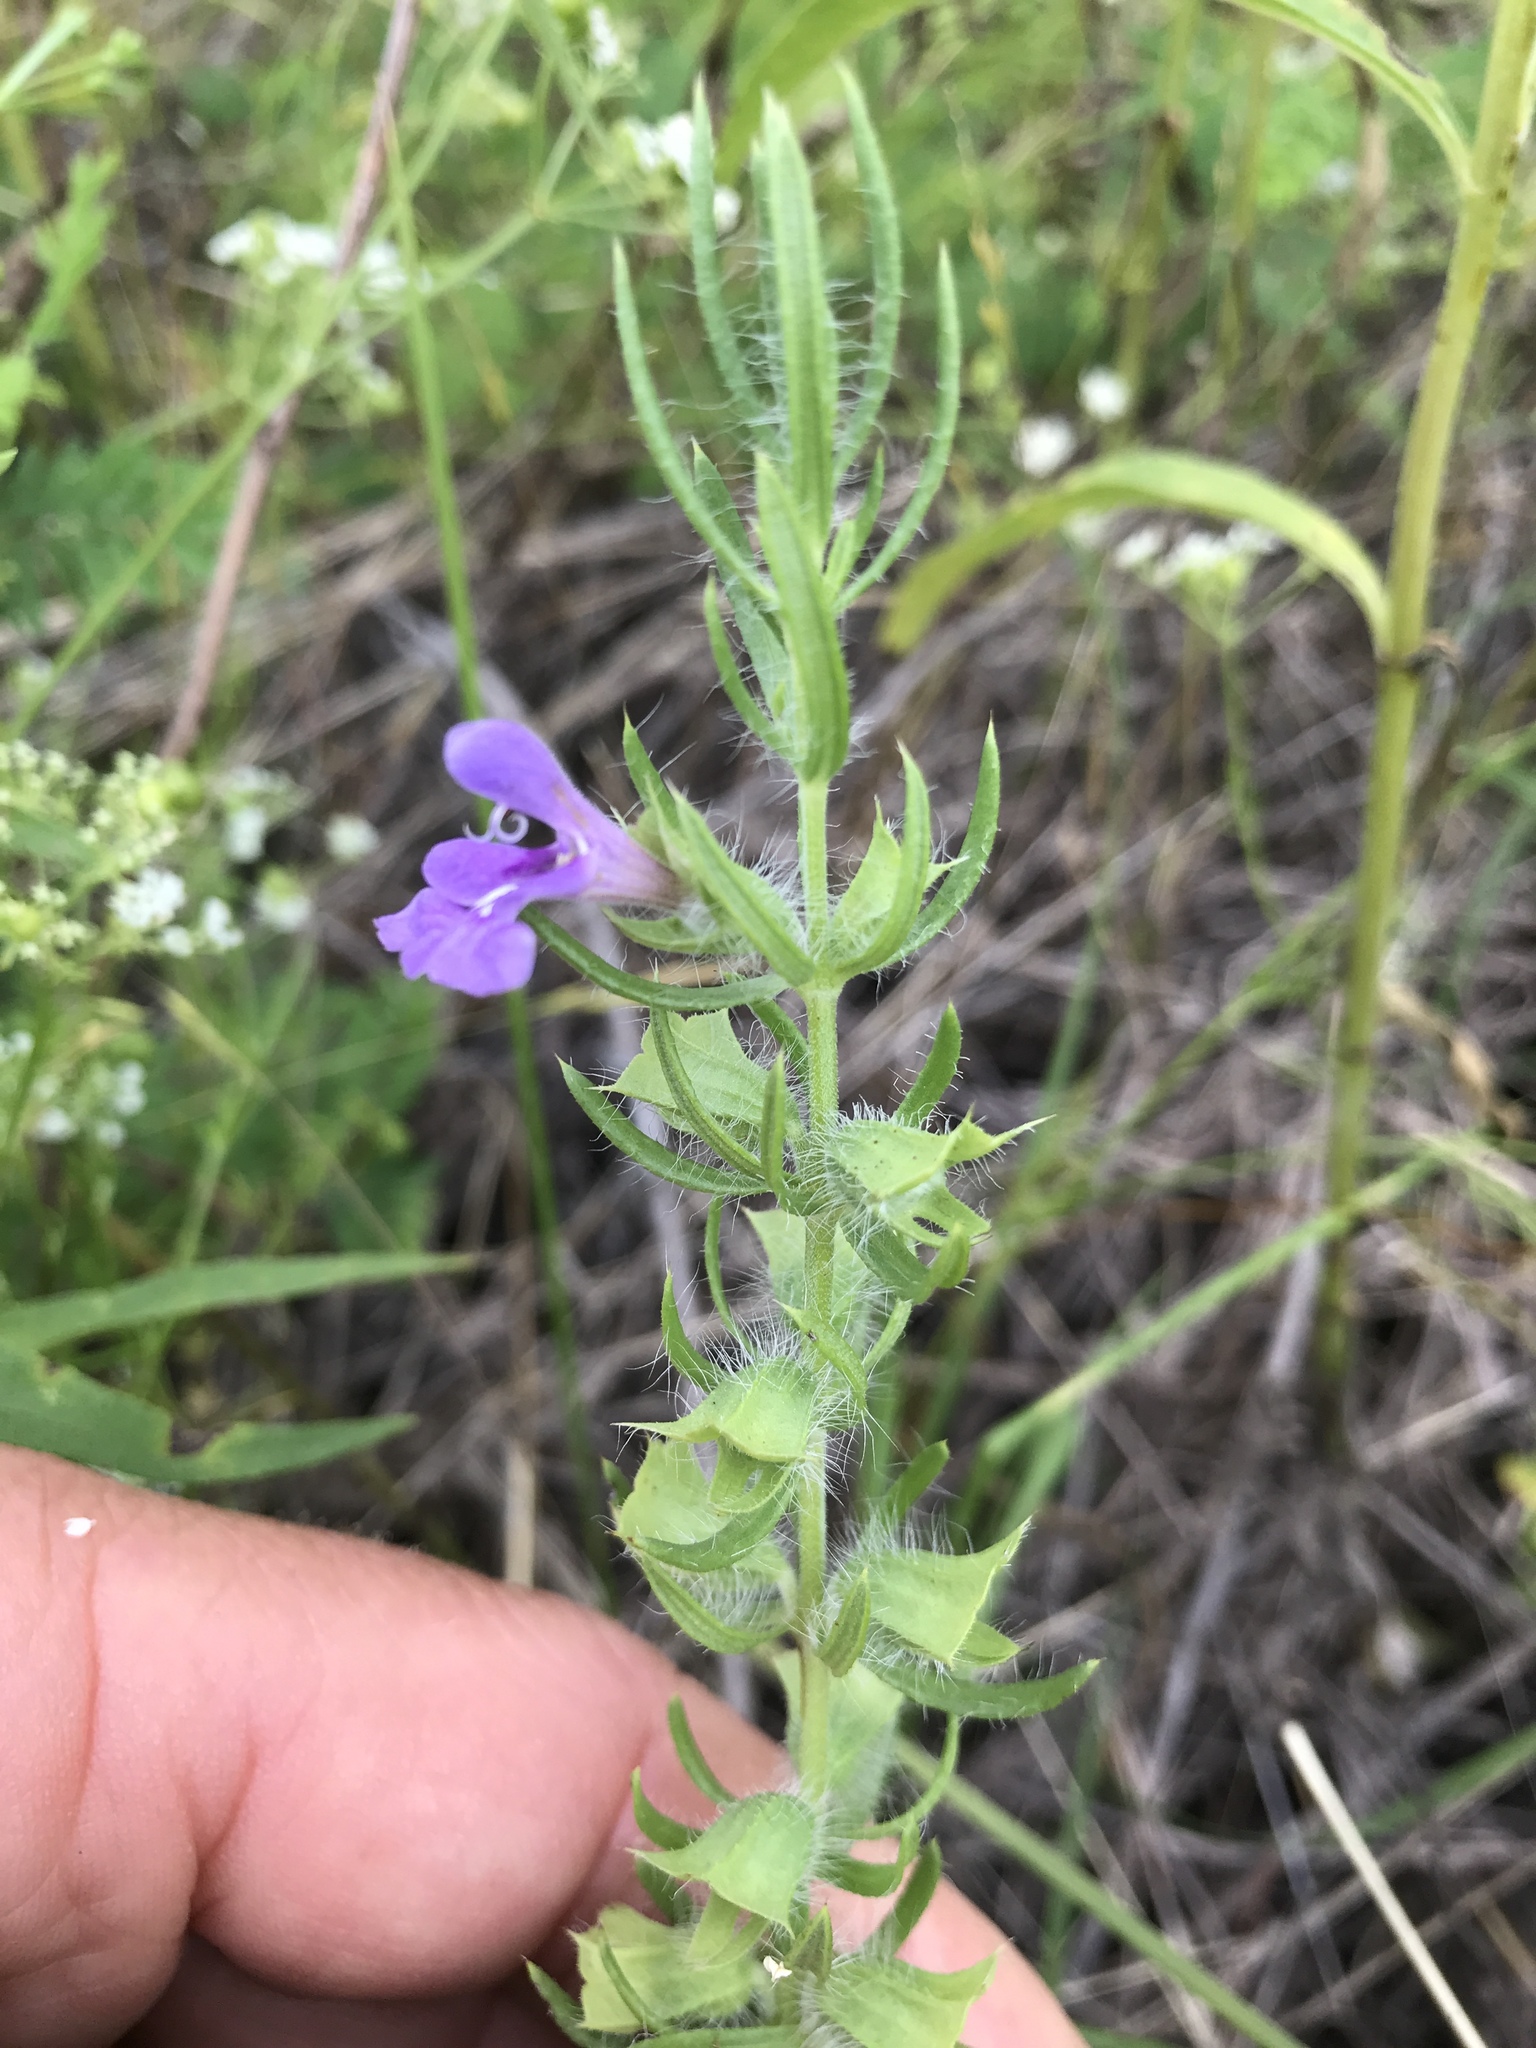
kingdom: Plantae
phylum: Tracheophyta
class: Magnoliopsida
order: Lamiales
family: Lamiaceae
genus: Salvia
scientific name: Salvia texana
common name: Texas sage
